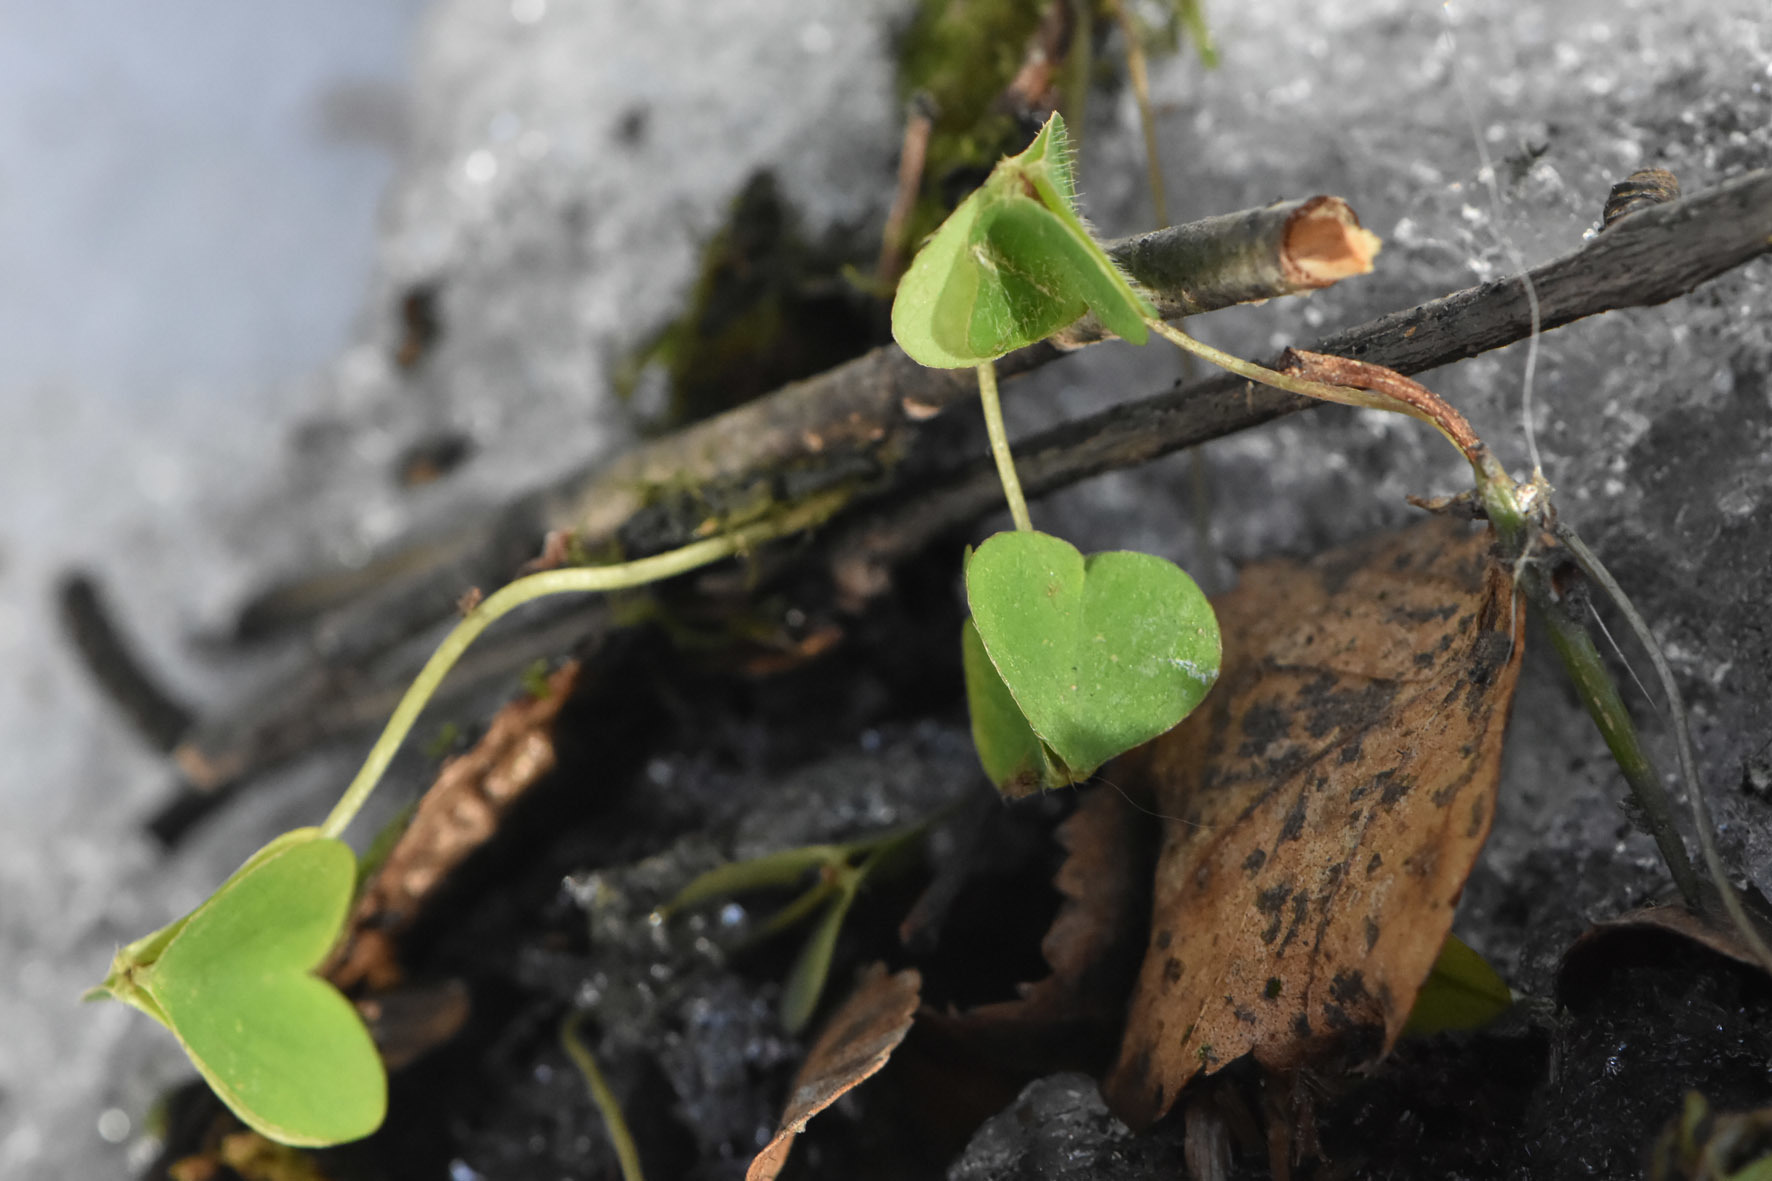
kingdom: Plantae
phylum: Tracheophyta
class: Magnoliopsida
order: Oxalidales
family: Oxalidaceae
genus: Oxalis
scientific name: Oxalis acetosella
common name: Wood-sorrel
